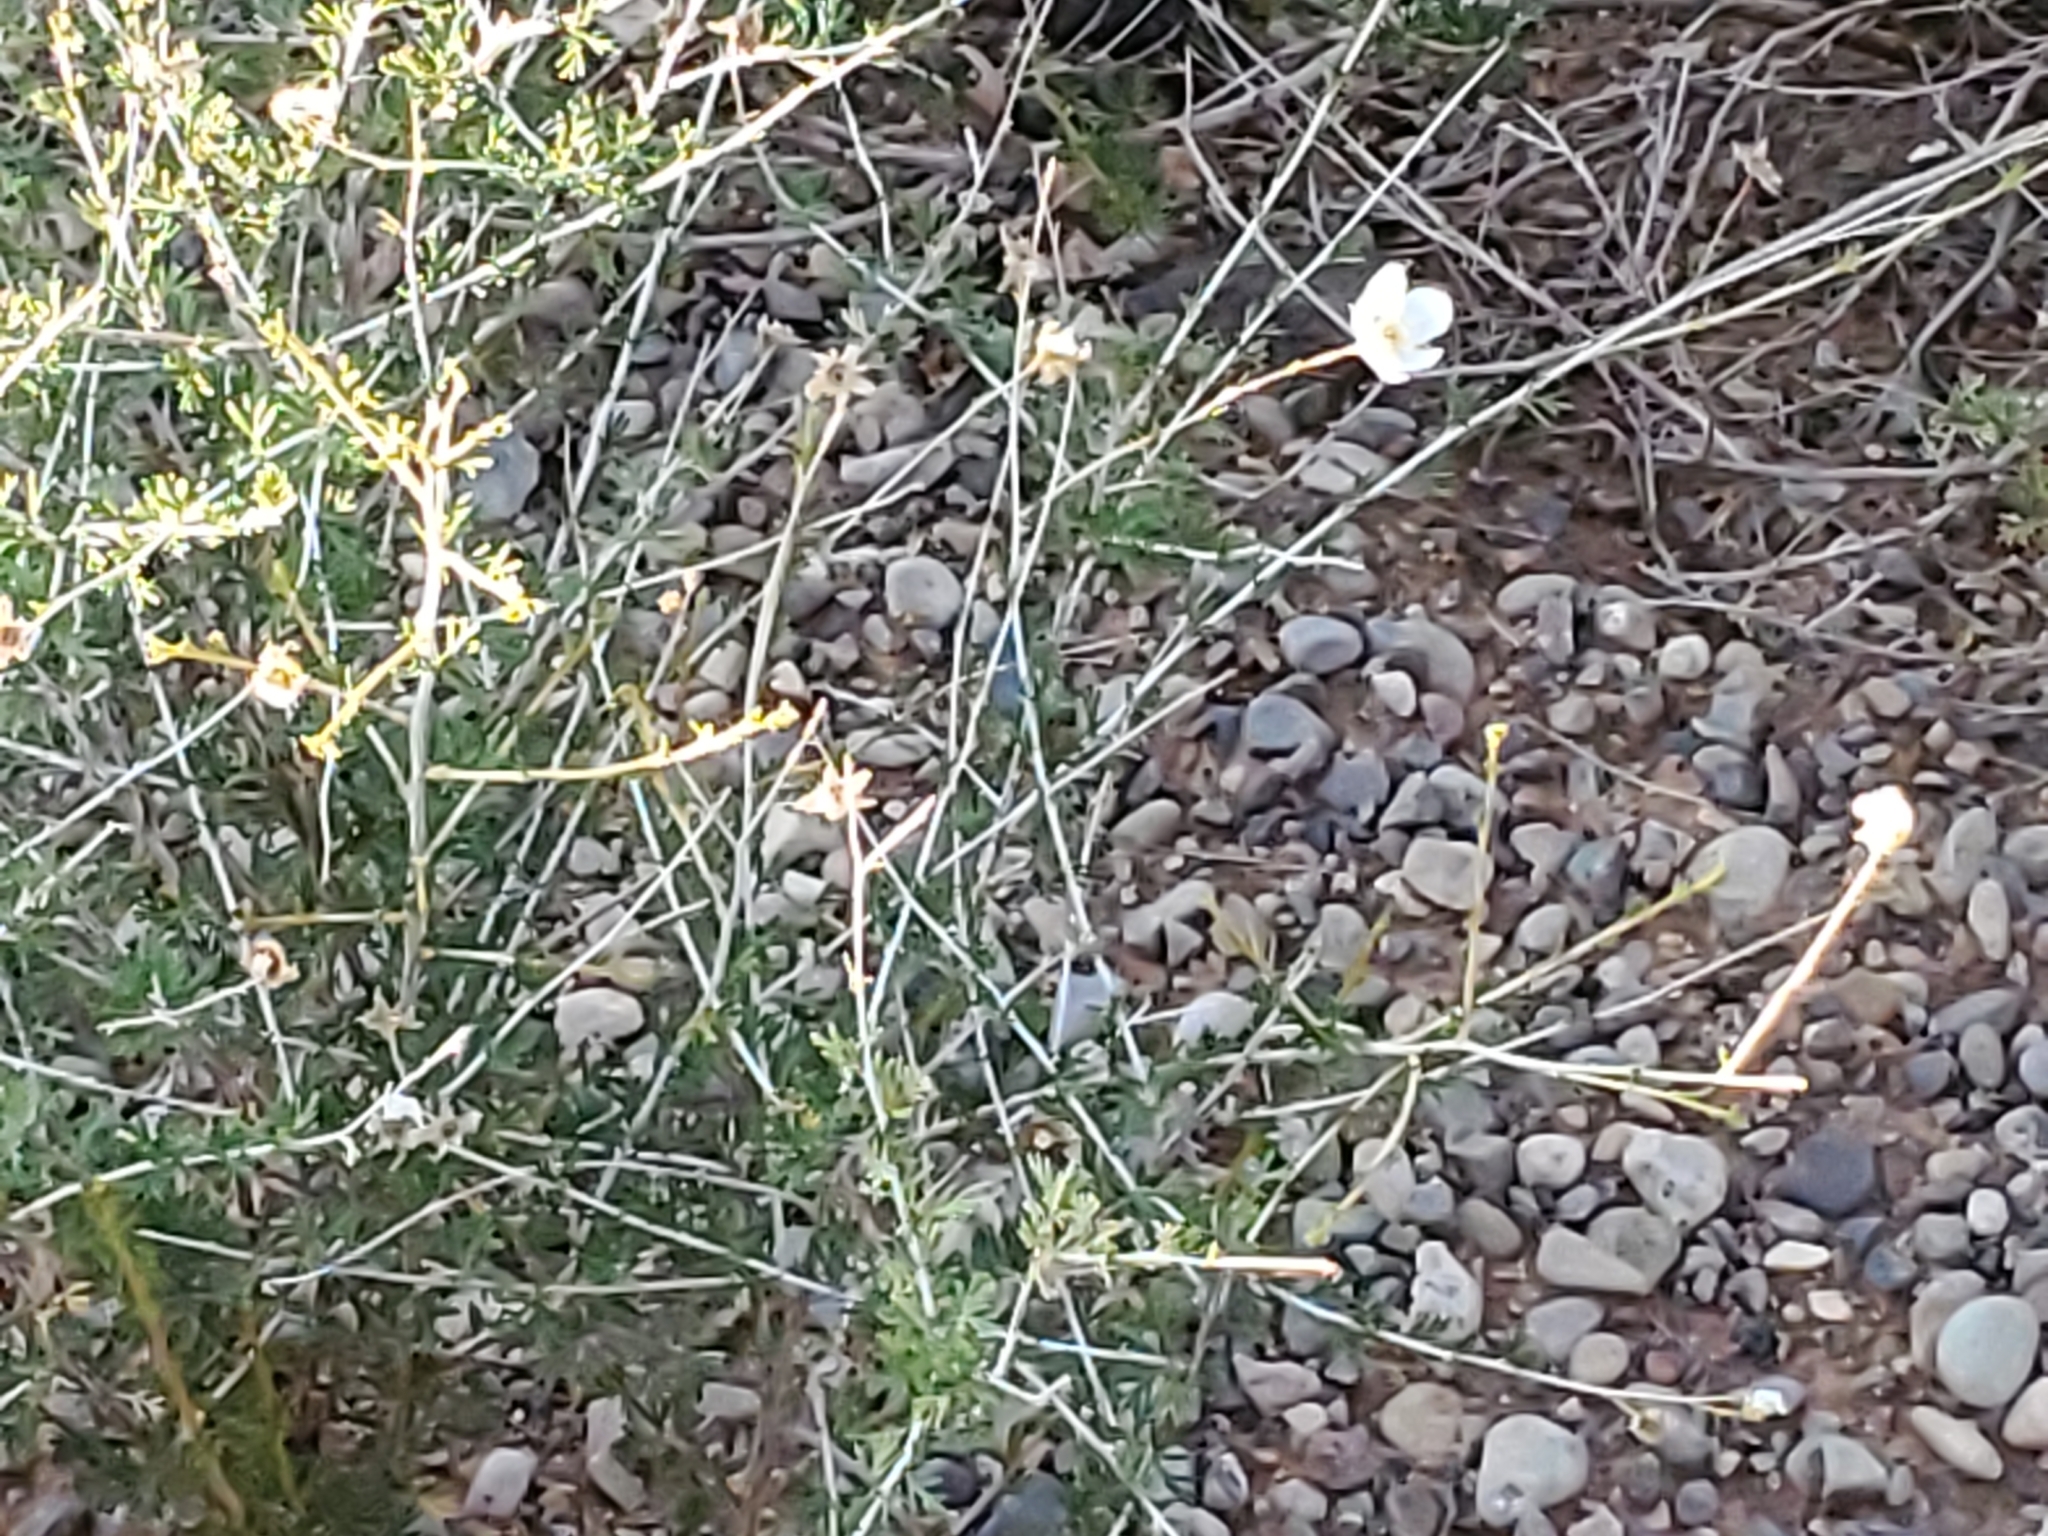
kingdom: Plantae
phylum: Tracheophyta
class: Magnoliopsida
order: Rosales
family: Rosaceae
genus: Fallugia
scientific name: Fallugia paradoxa
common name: Apache-plume
